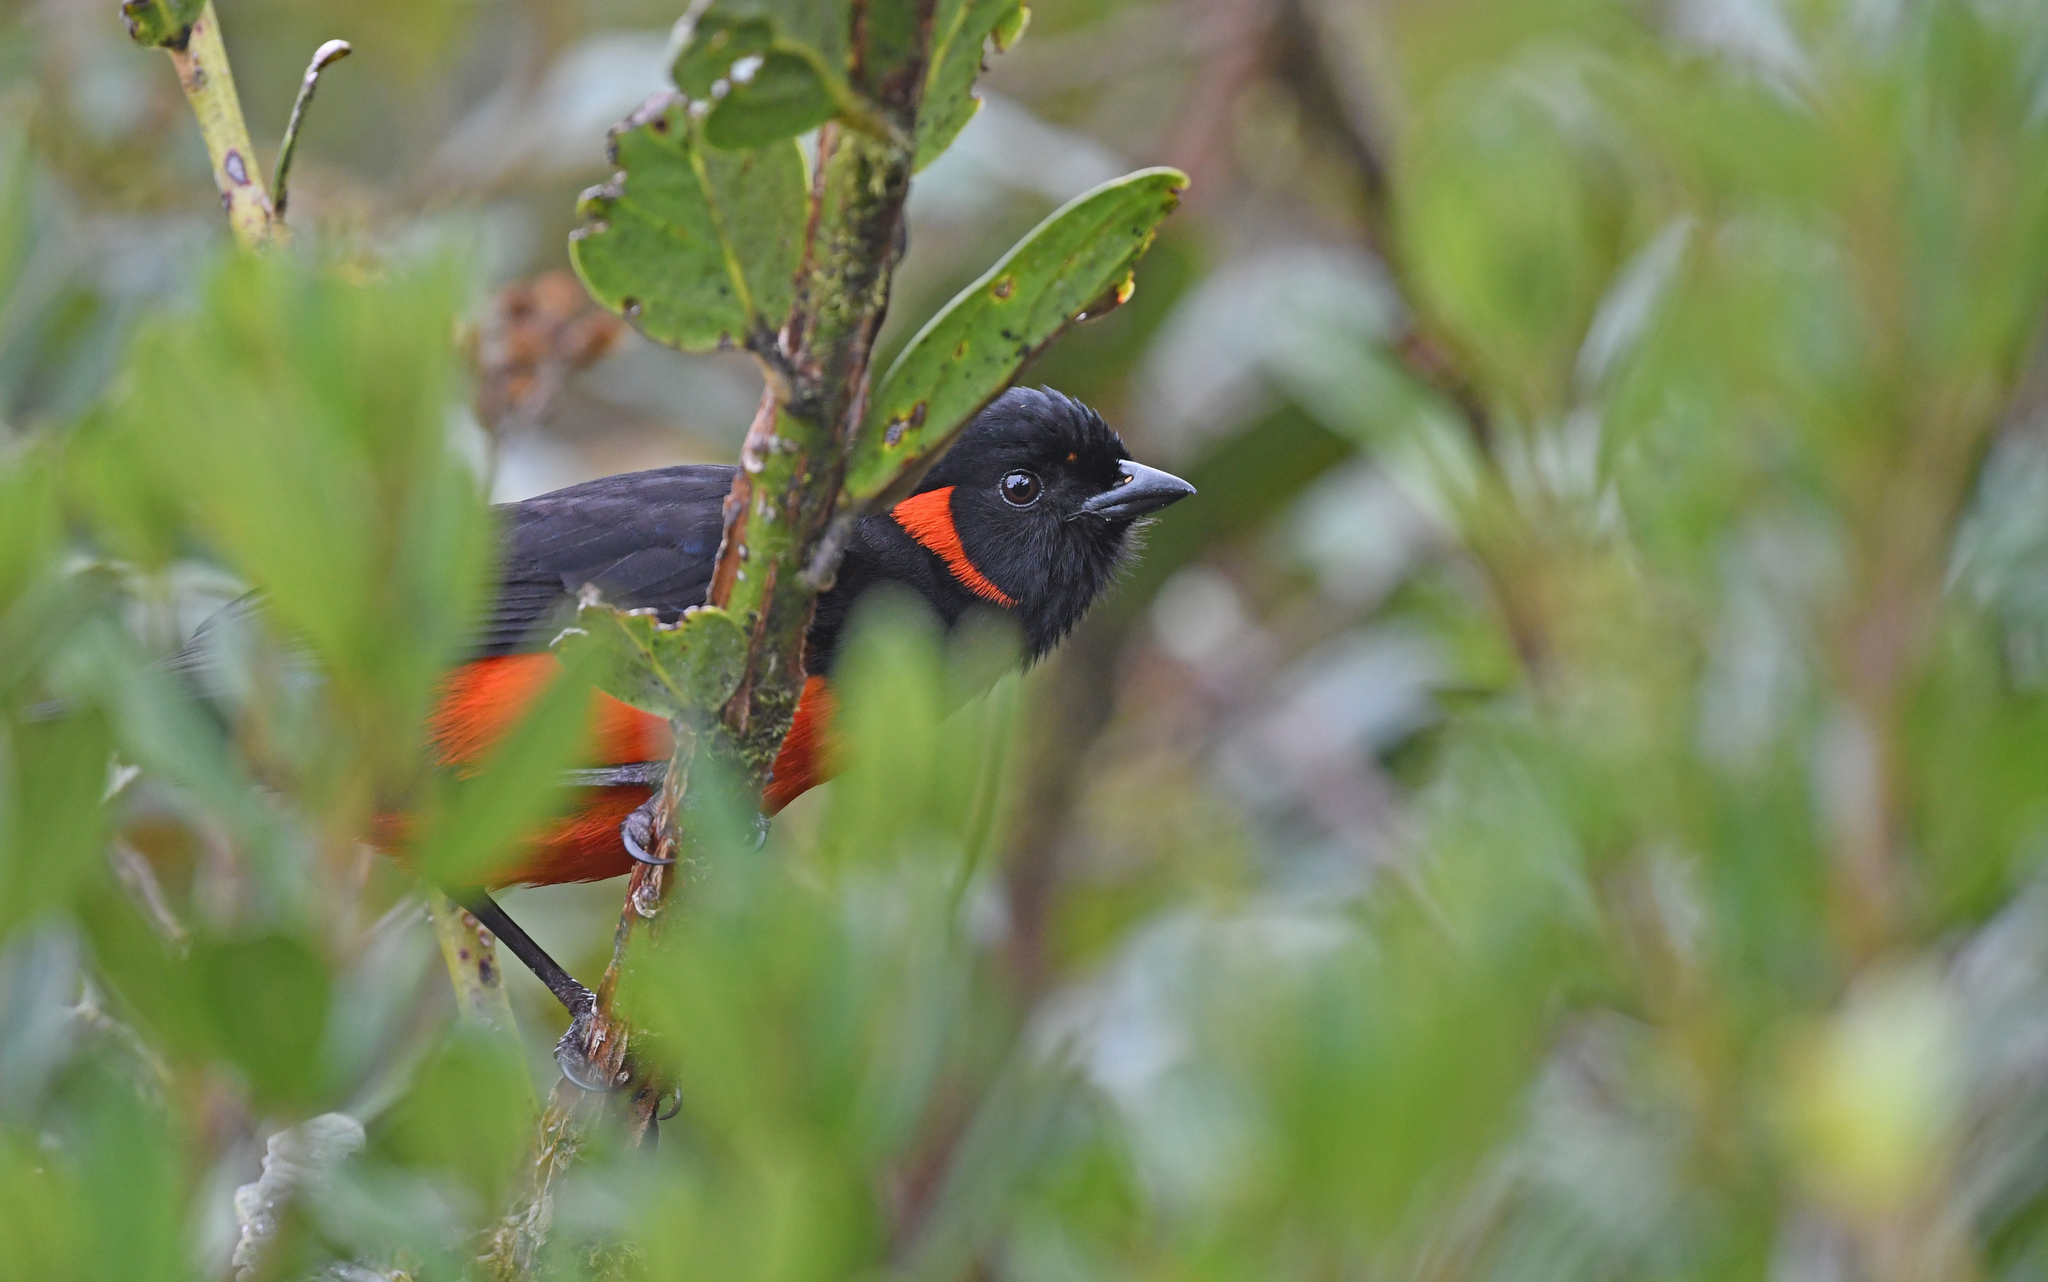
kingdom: Animalia
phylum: Chordata
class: Aves
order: Passeriformes
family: Thraupidae
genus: Anisognathus
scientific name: Anisognathus igniventris
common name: Scarlet-bellied mountain tanager
